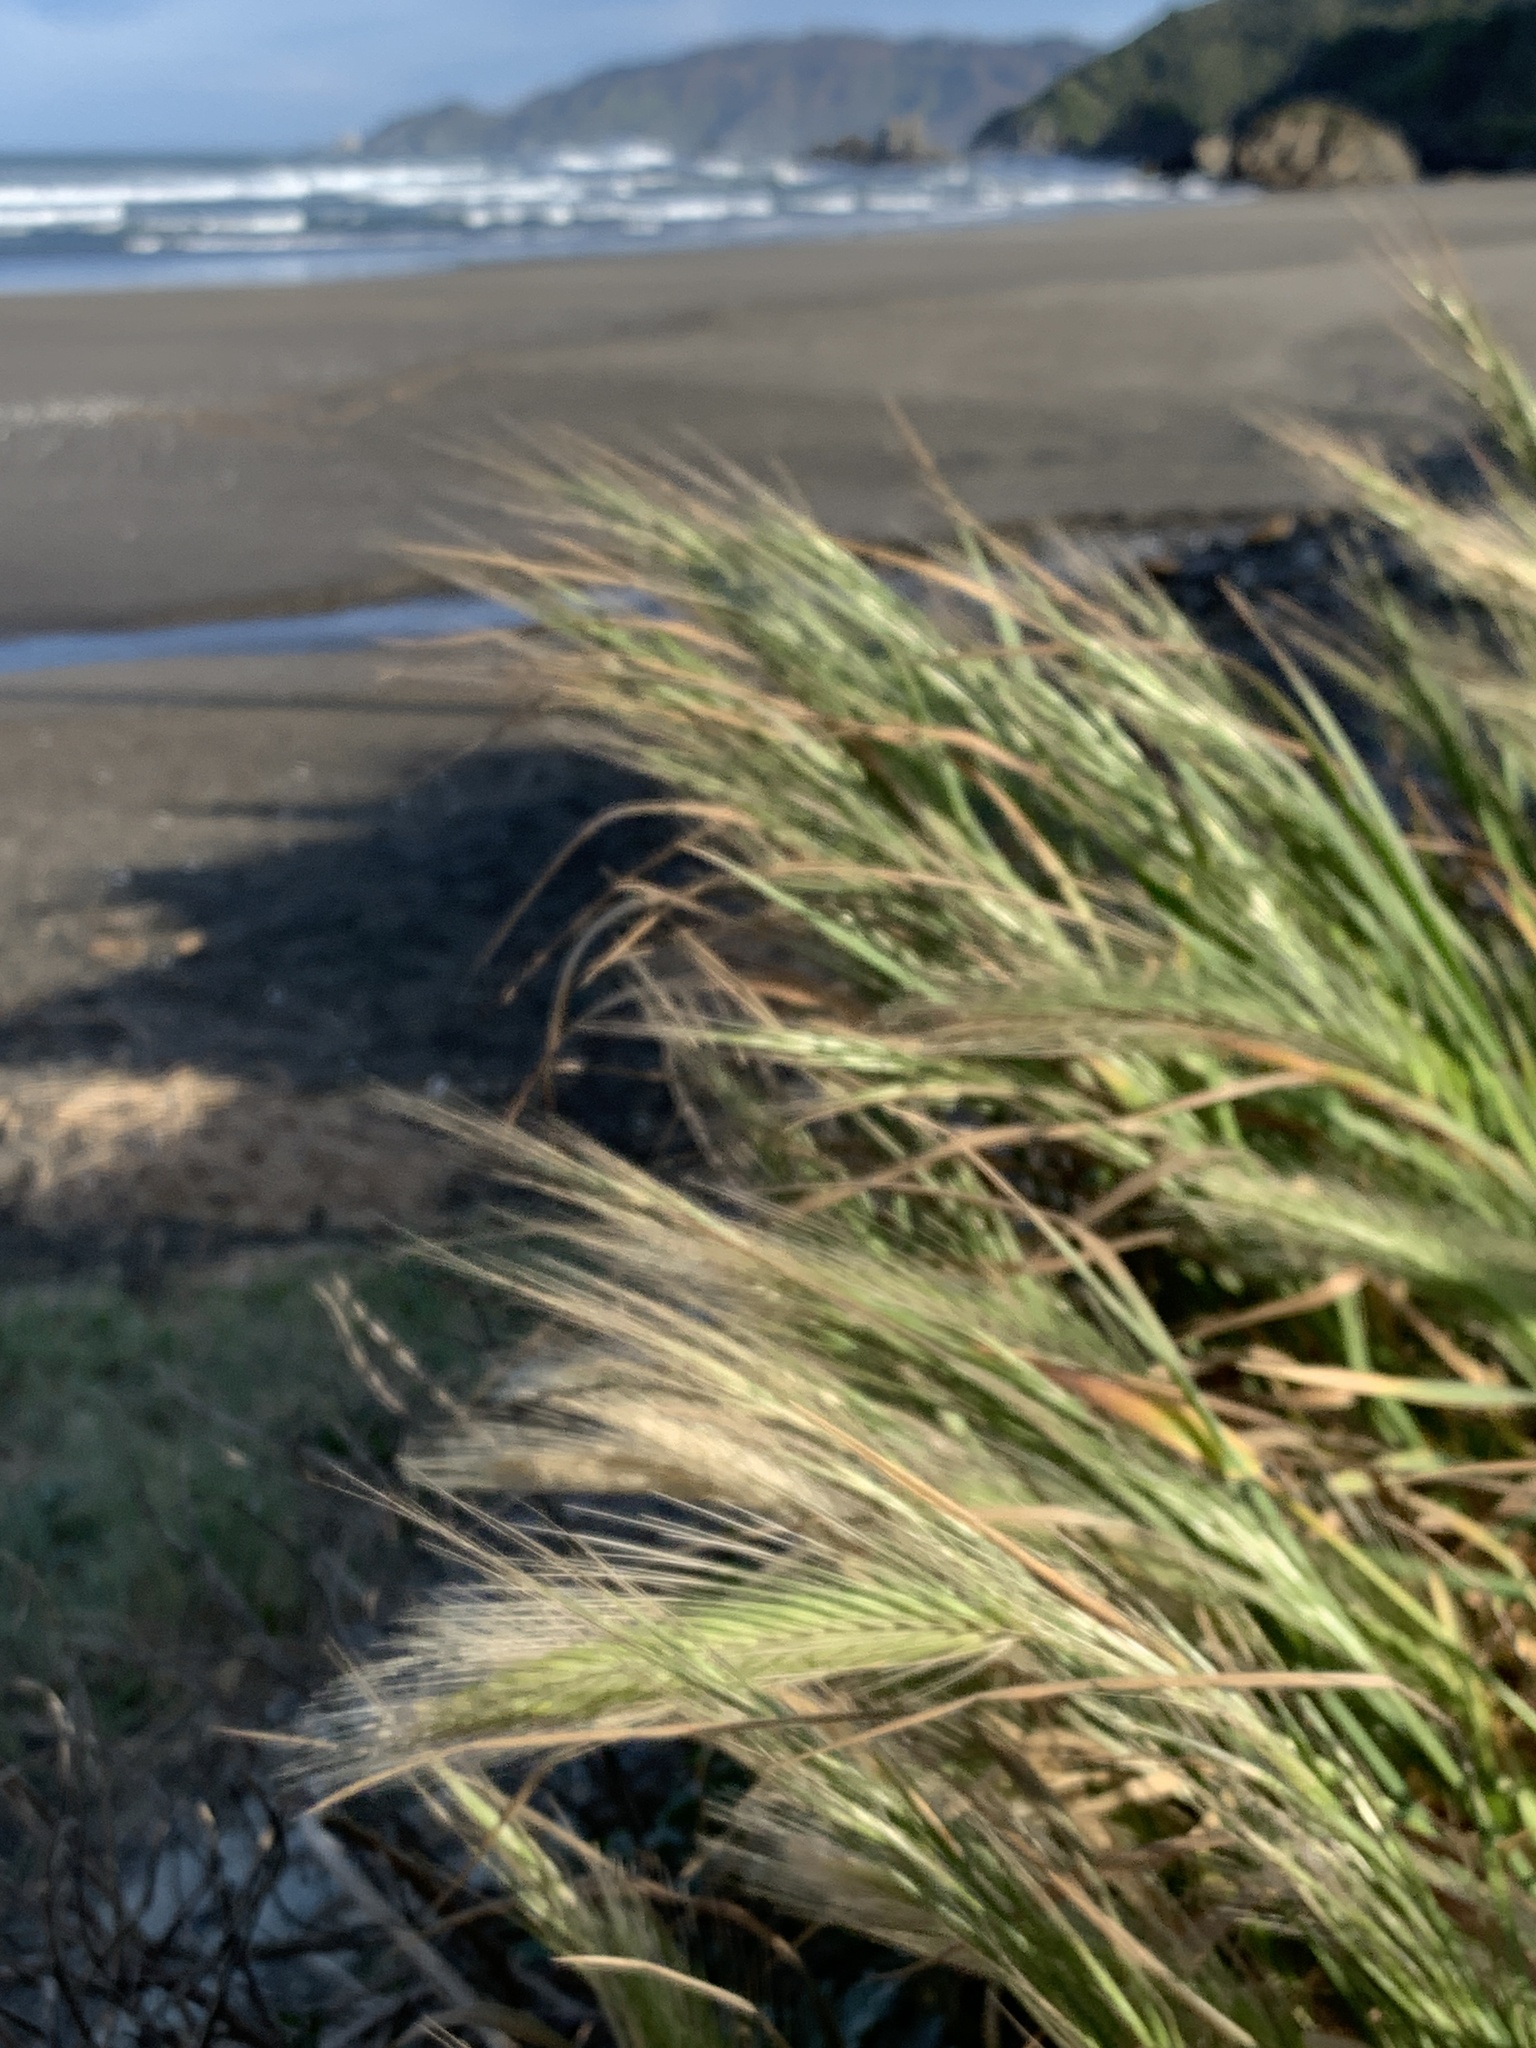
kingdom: Plantae
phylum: Tracheophyta
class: Liliopsida
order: Poales
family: Poaceae
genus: Hordeum
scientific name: Hordeum murinum
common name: Wall barley
